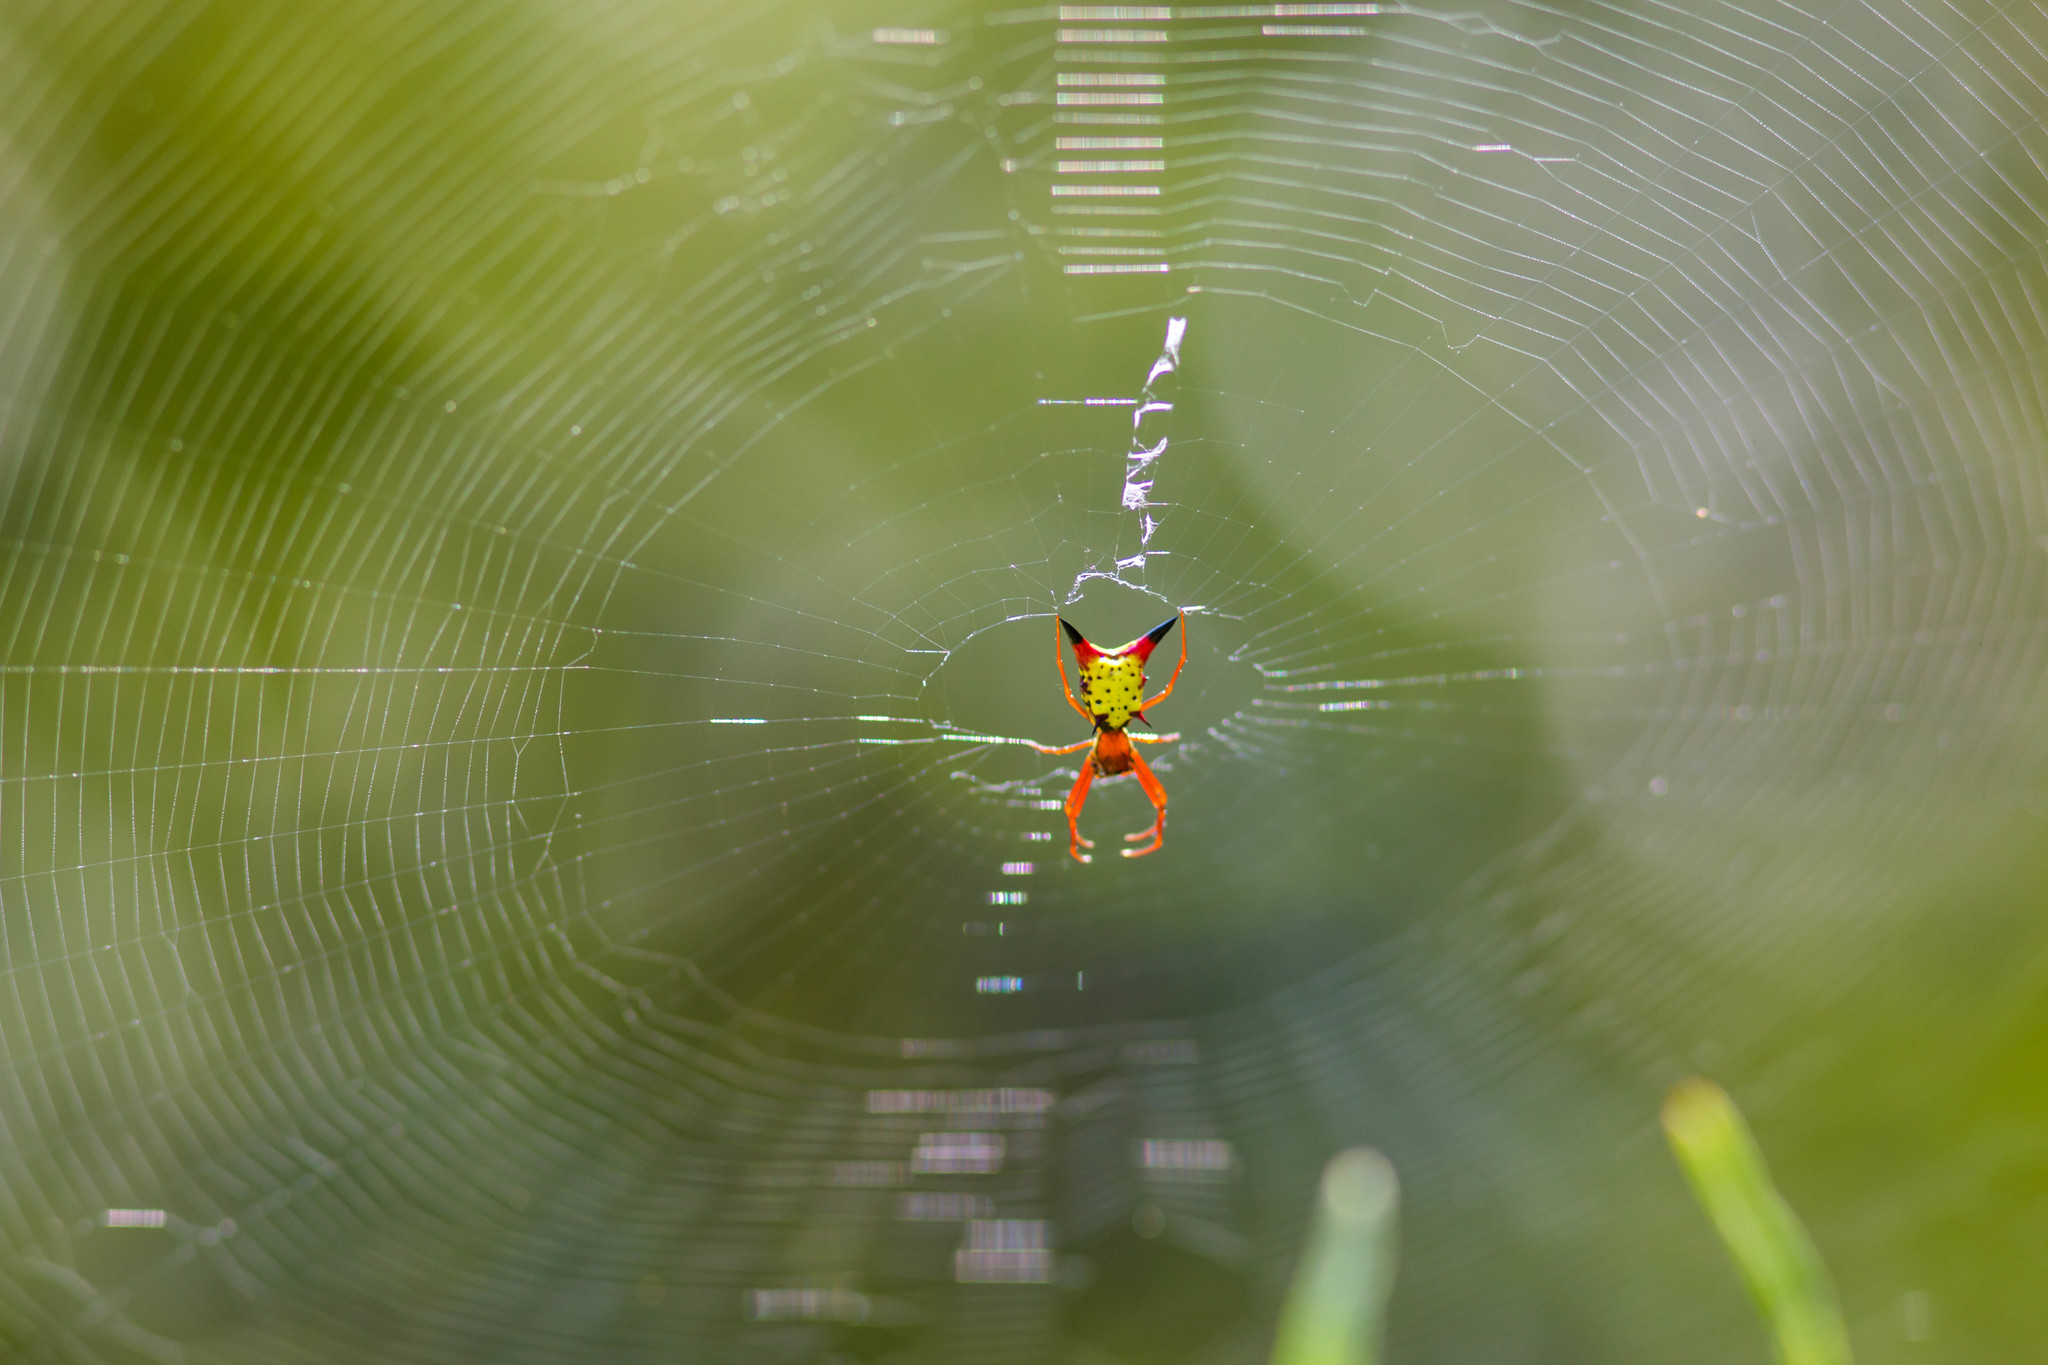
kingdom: Animalia
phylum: Arthropoda
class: Arachnida
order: Araneae
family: Araneidae
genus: Micrathena
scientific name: Micrathena sagittata
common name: Orb weavers
